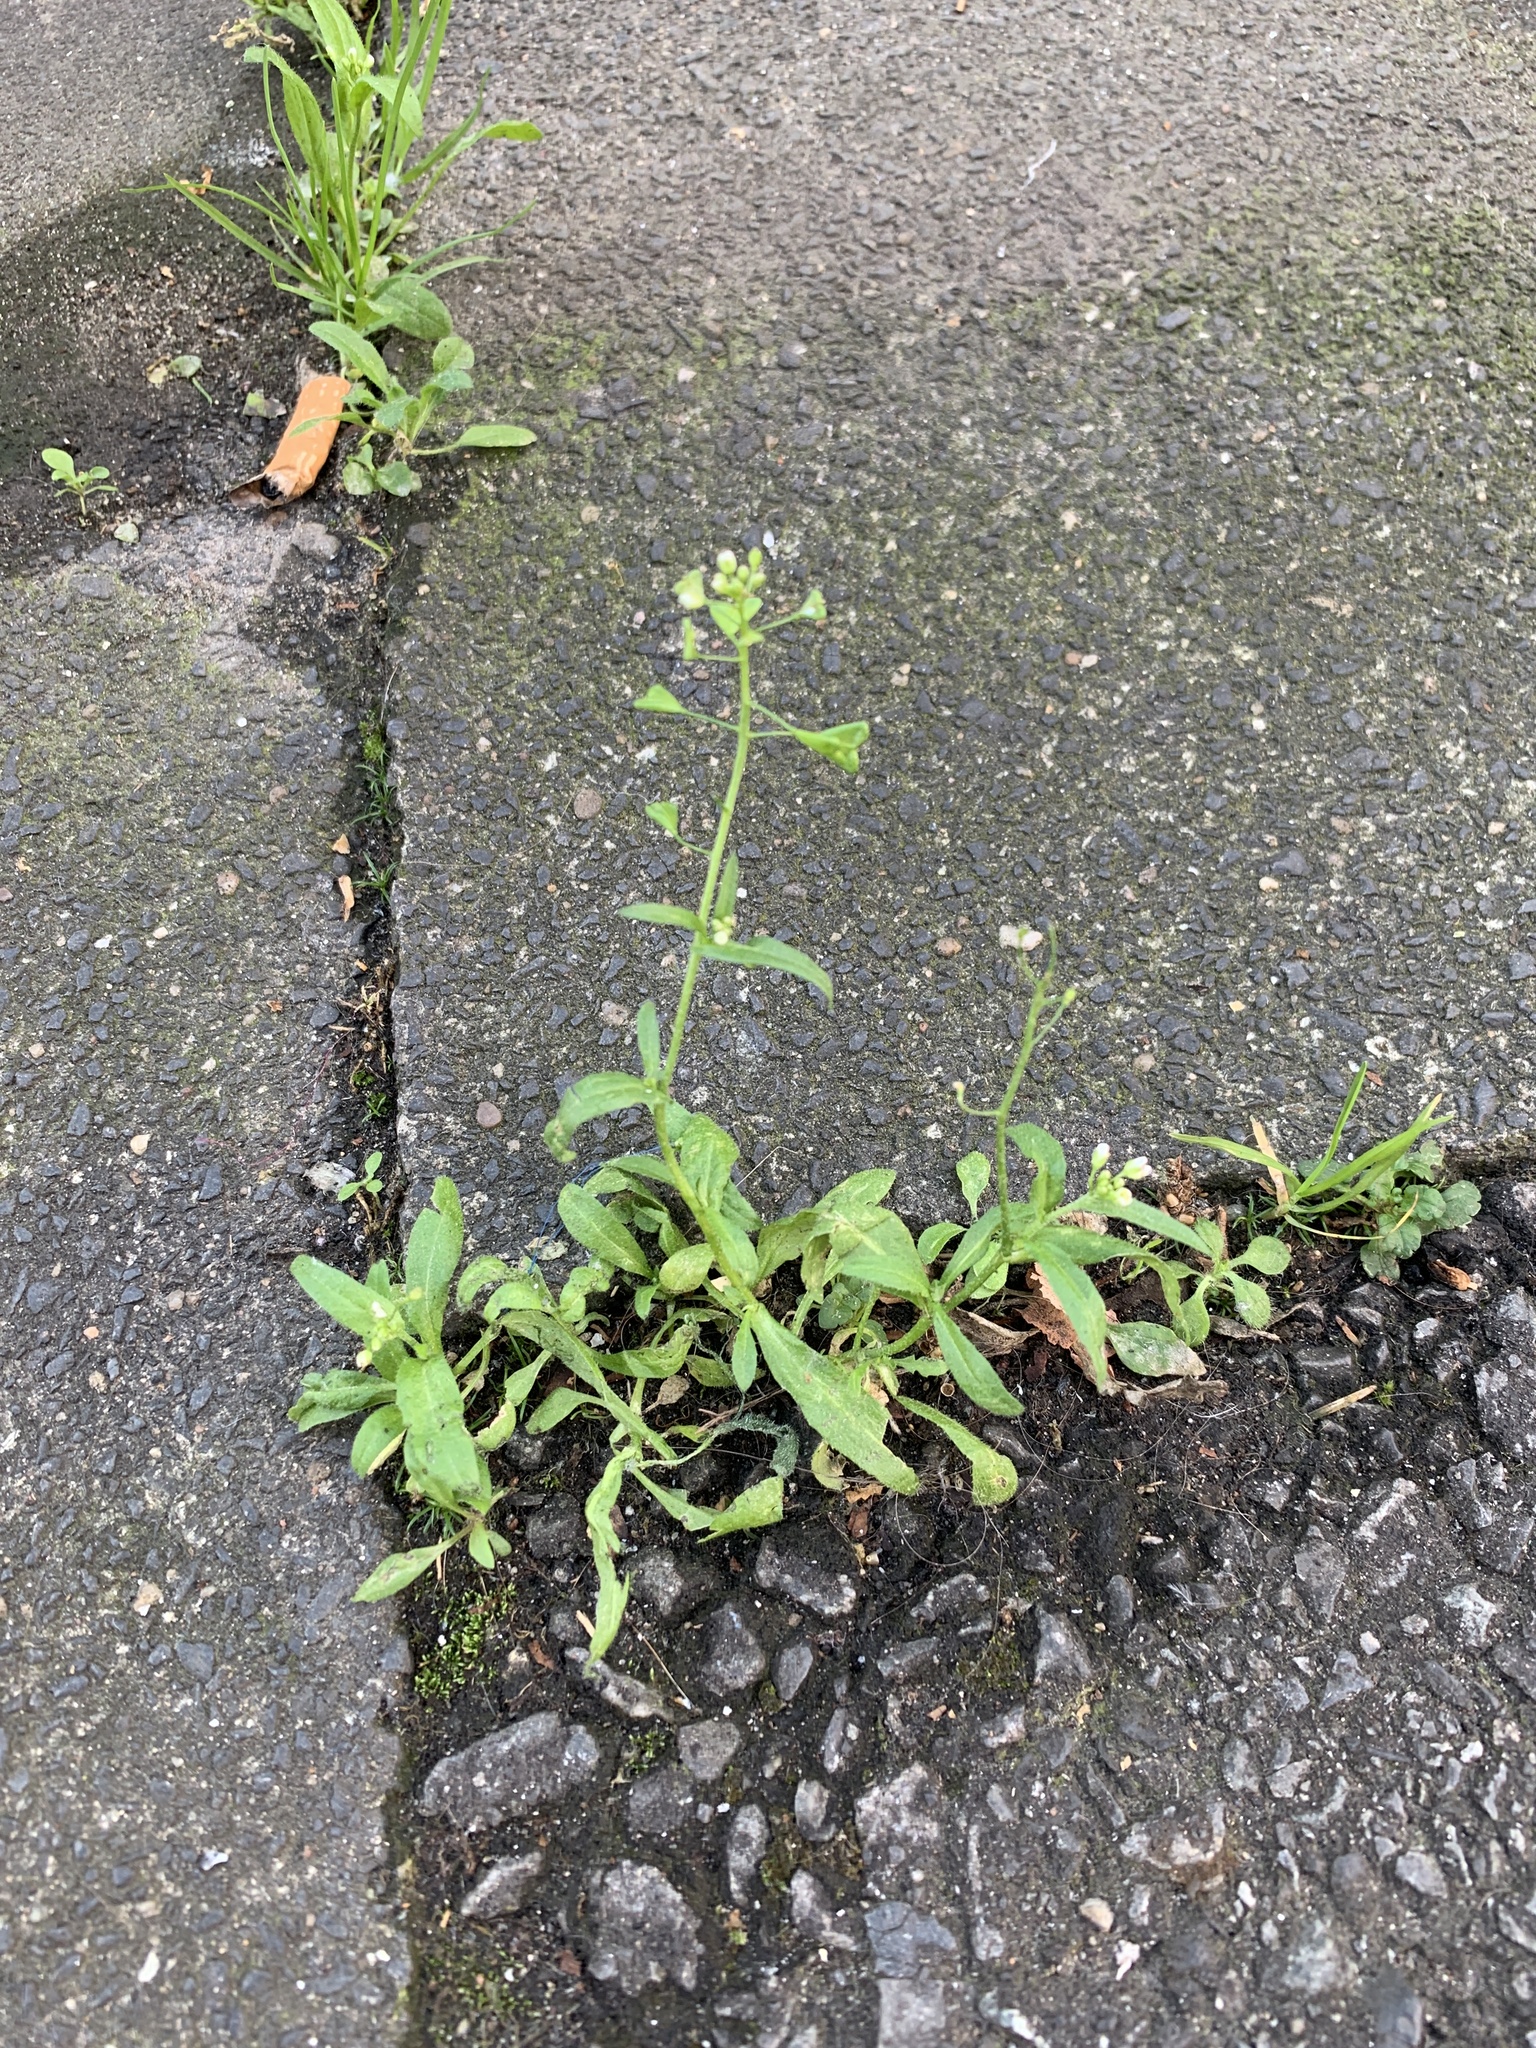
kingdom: Plantae
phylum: Tracheophyta
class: Magnoliopsida
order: Brassicales
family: Brassicaceae
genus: Capsella
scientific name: Capsella bursa-pastoris
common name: Shepherd's purse
